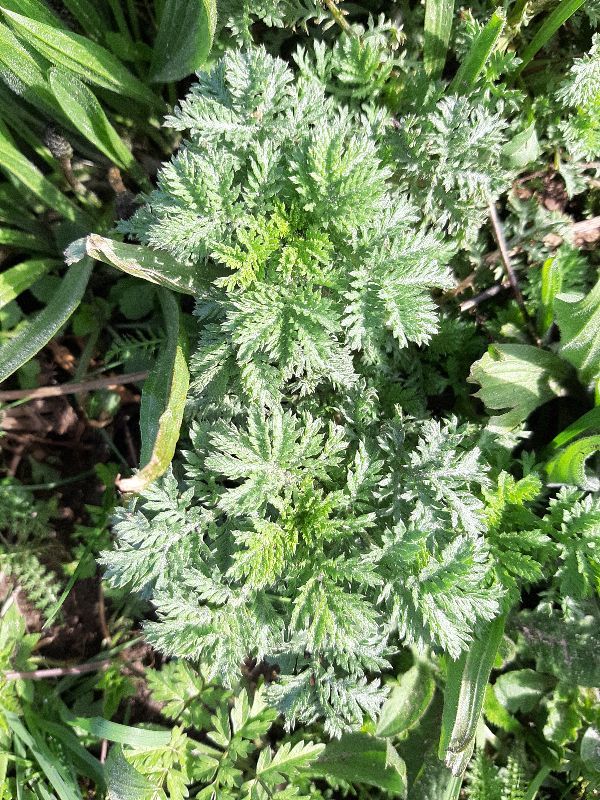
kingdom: Plantae
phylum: Tracheophyta
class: Magnoliopsida
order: Asterales
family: Asteraceae
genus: Cota
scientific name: Cota tinctoria
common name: Golden chamomile
